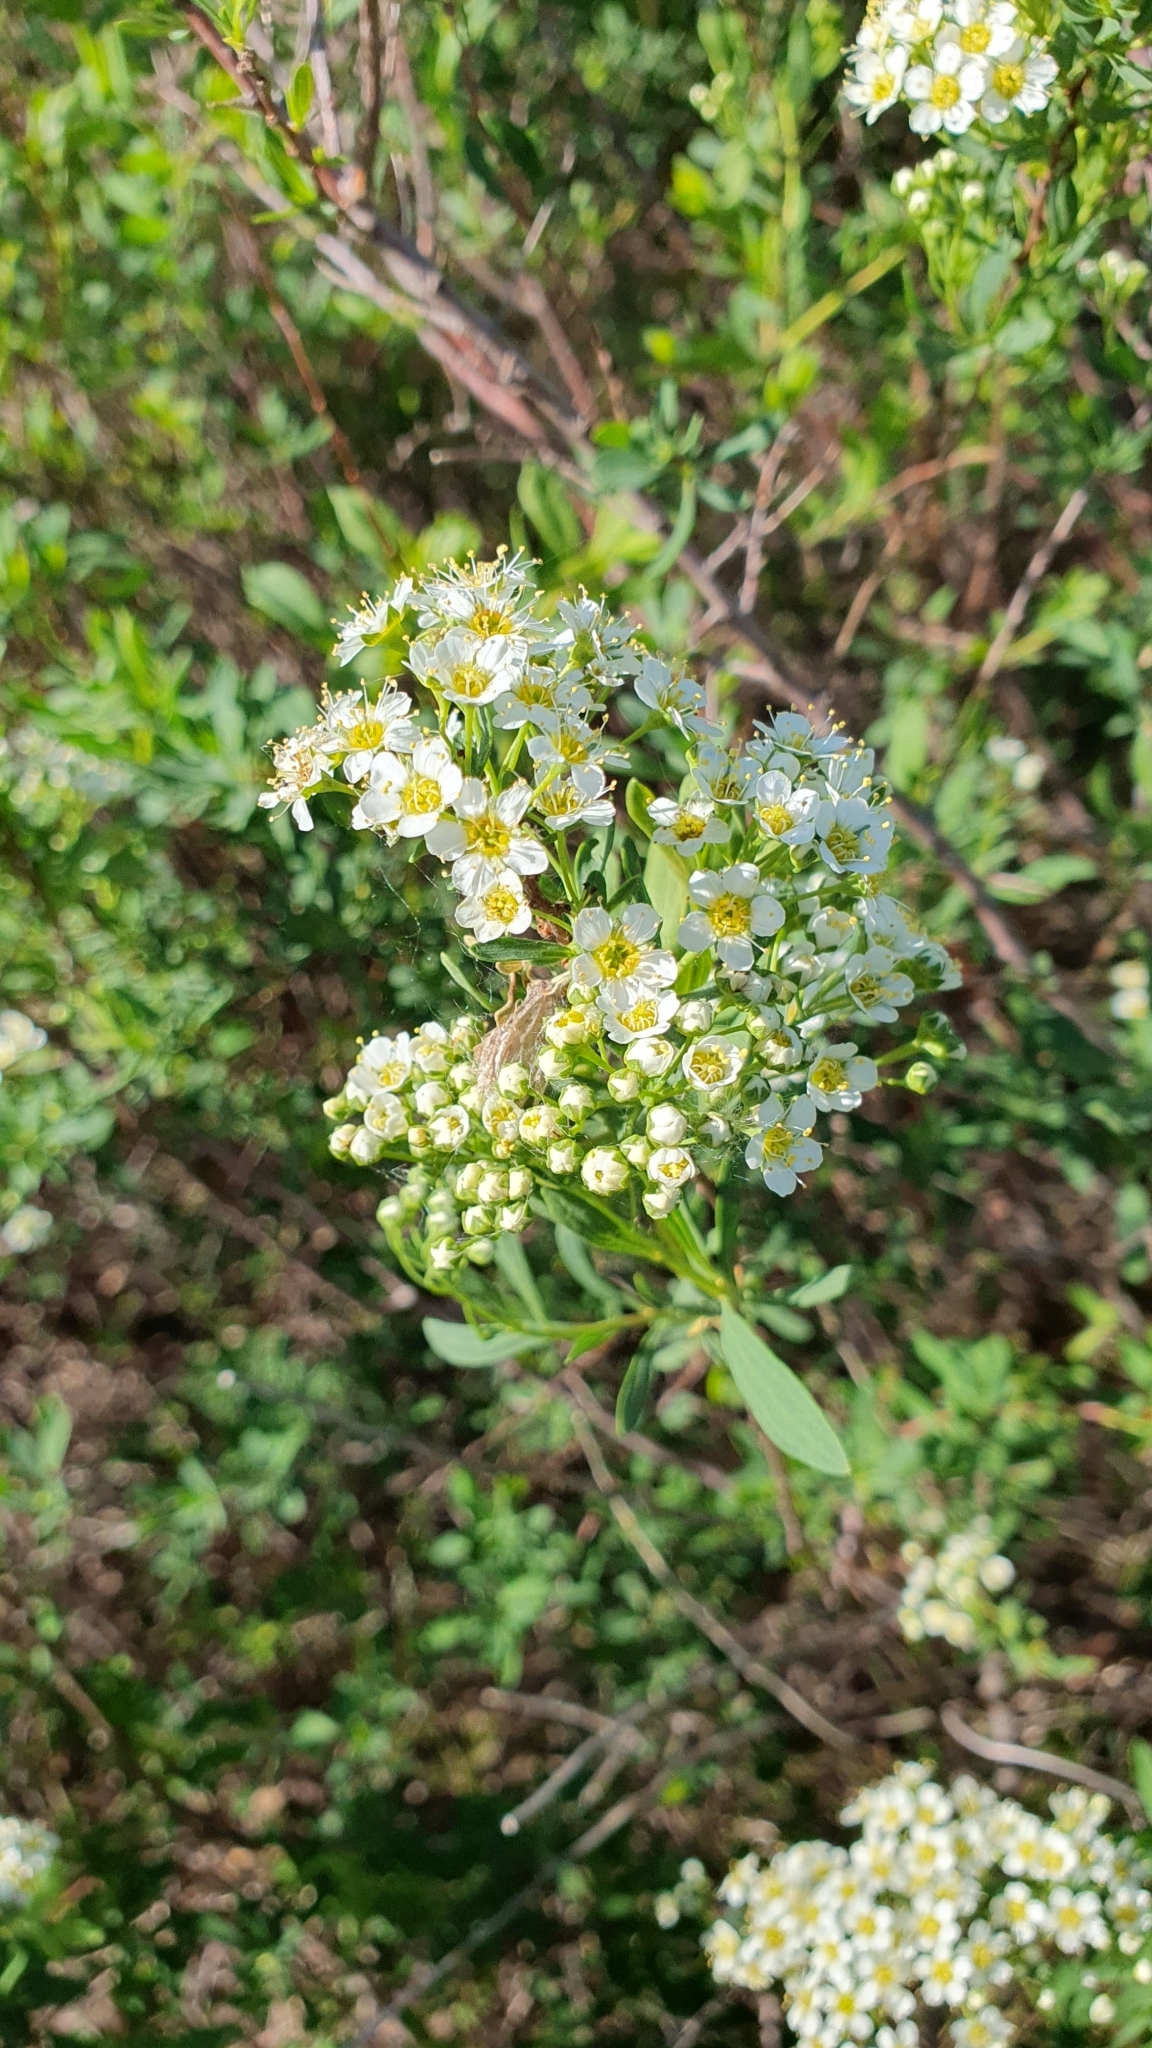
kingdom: Plantae
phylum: Tracheophyta
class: Magnoliopsida
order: Rosales
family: Rosaceae
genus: Spiraea
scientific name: Spiraea crenata
